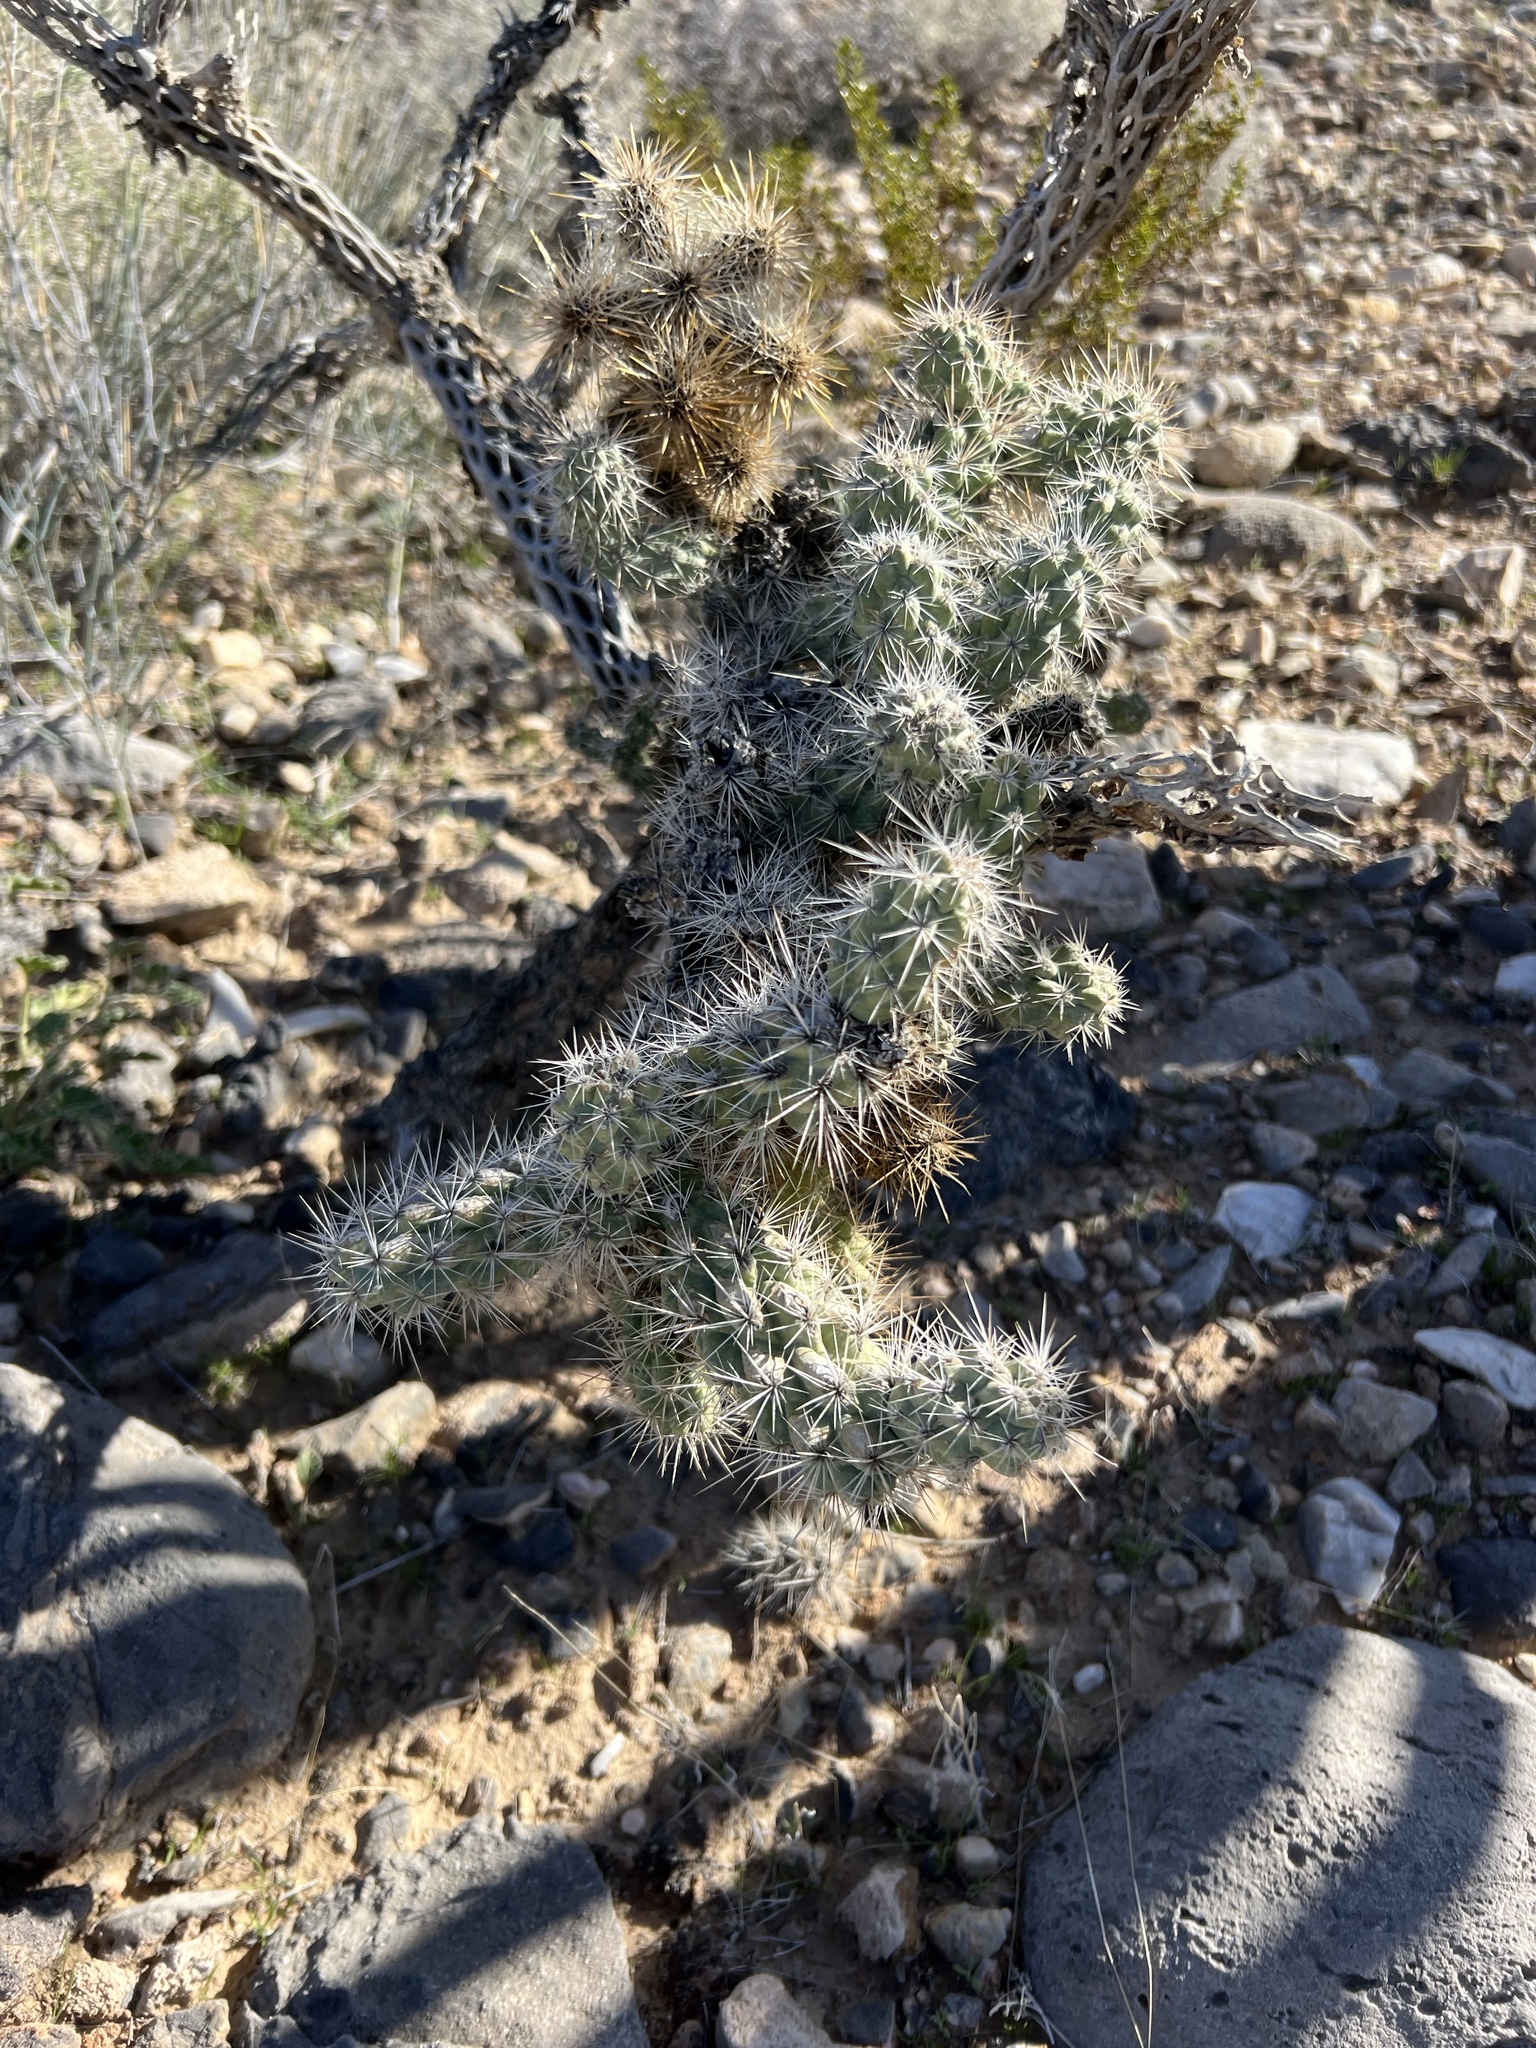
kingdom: Plantae
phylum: Tracheophyta
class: Magnoliopsida
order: Caryophyllales
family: Cactaceae
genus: Cylindropuntia
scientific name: Cylindropuntia echinocarpa
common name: Ground cholla
